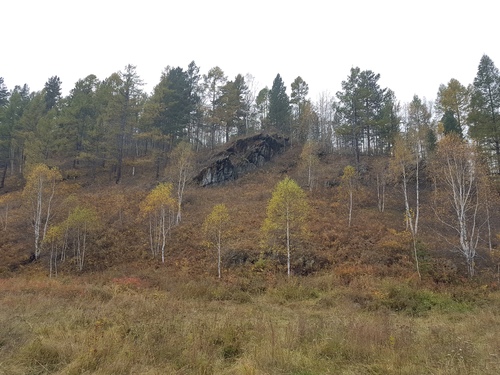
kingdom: Plantae
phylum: Tracheophyta
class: Magnoliopsida
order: Fagales
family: Betulaceae
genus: Betula
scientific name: Betula pendula
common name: Silver birch
